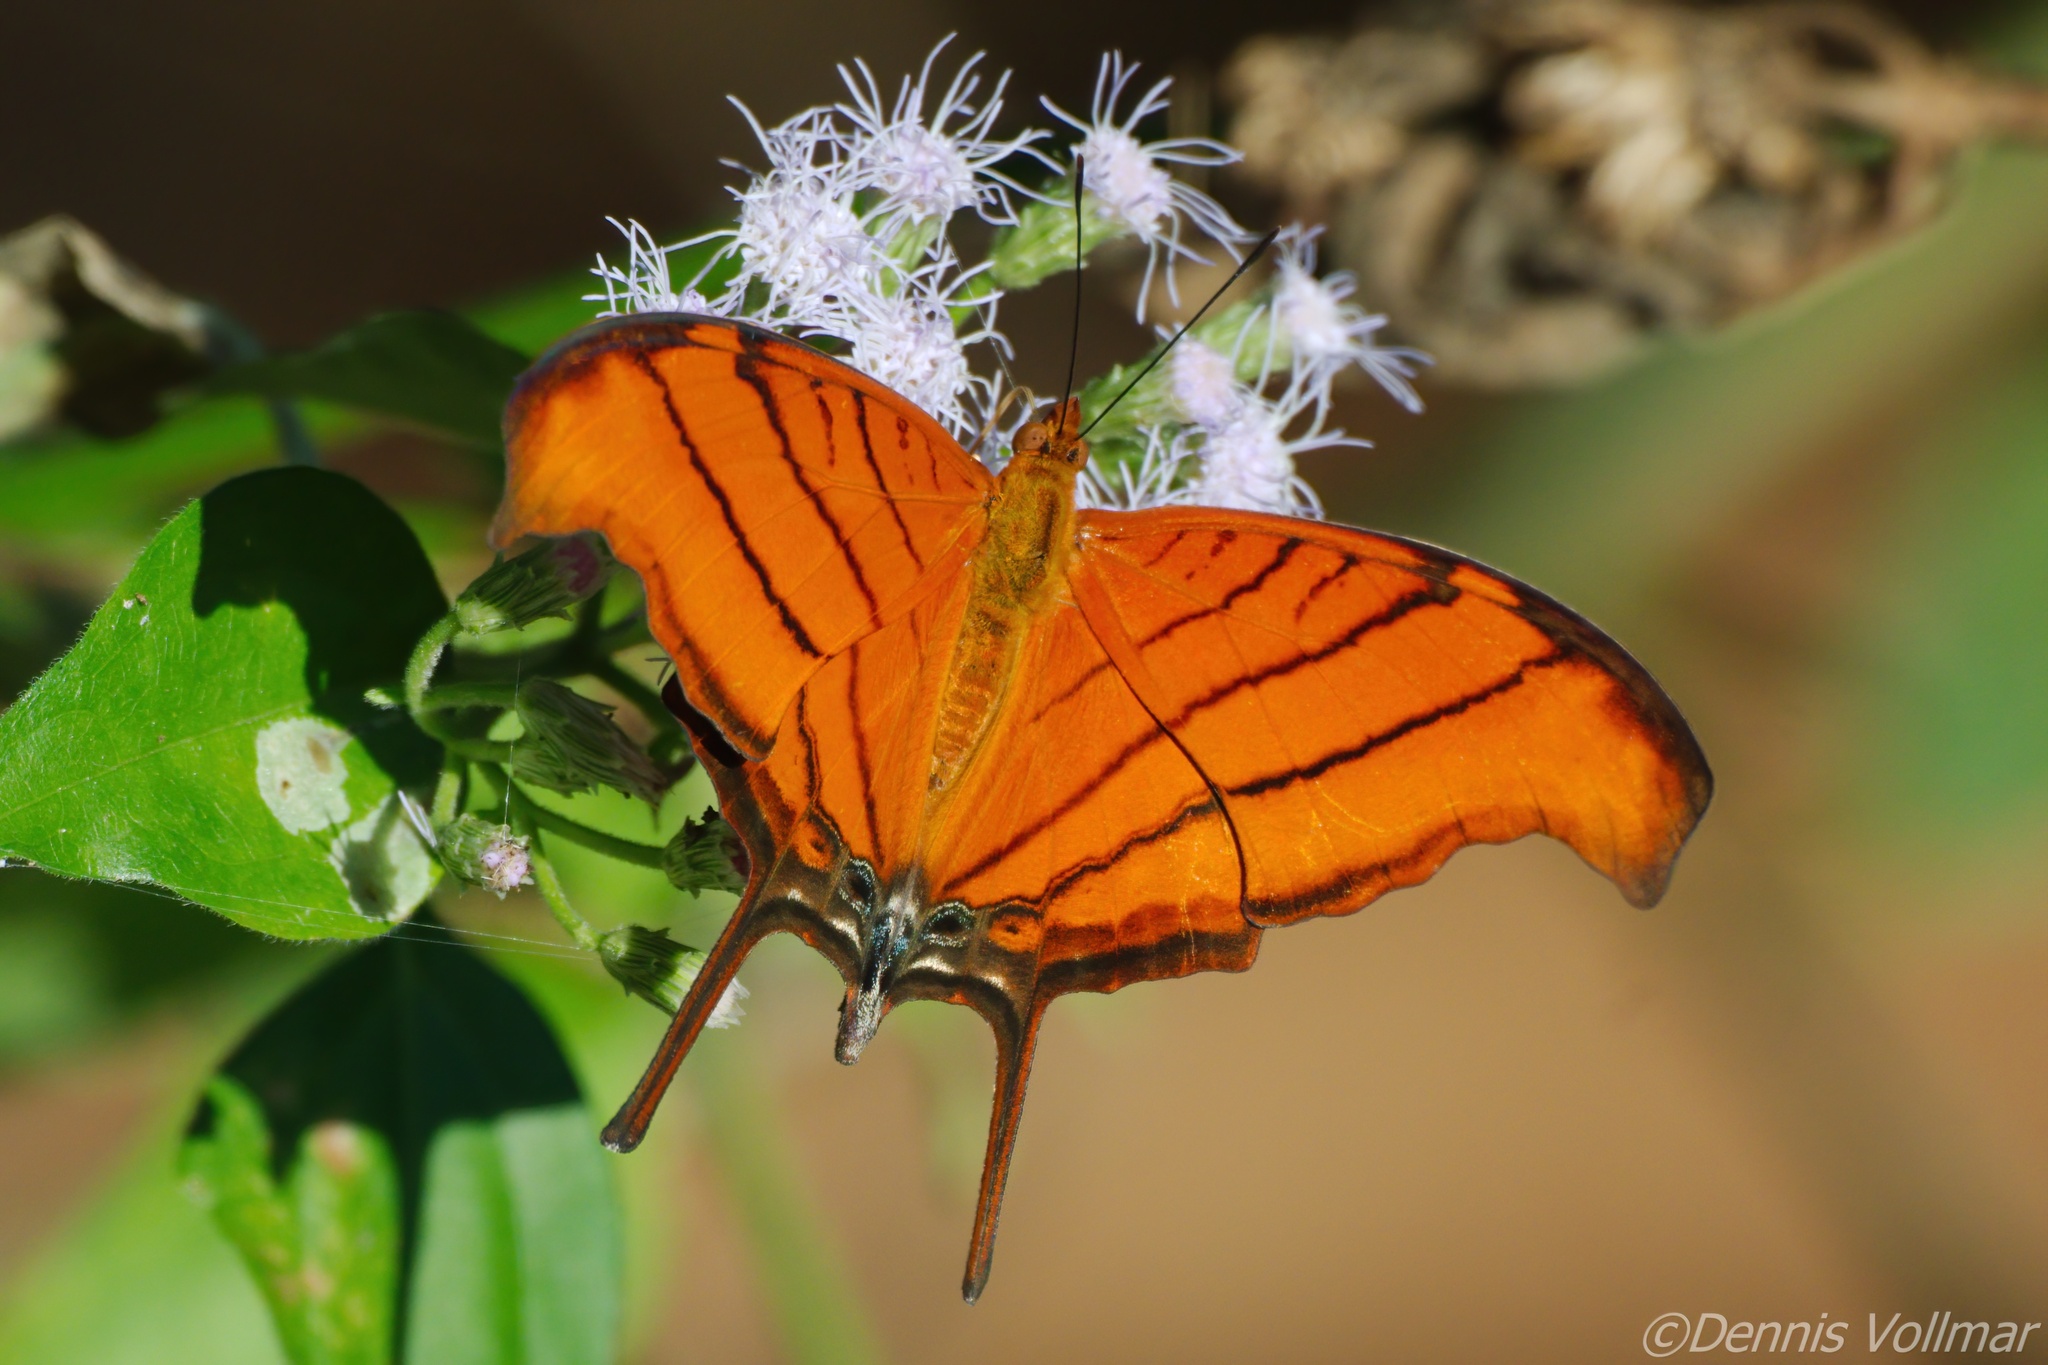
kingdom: Animalia
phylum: Arthropoda
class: Insecta
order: Lepidoptera
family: Nymphalidae
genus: Marpesia
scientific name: Marpesia petreus
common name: Red dagger wing
